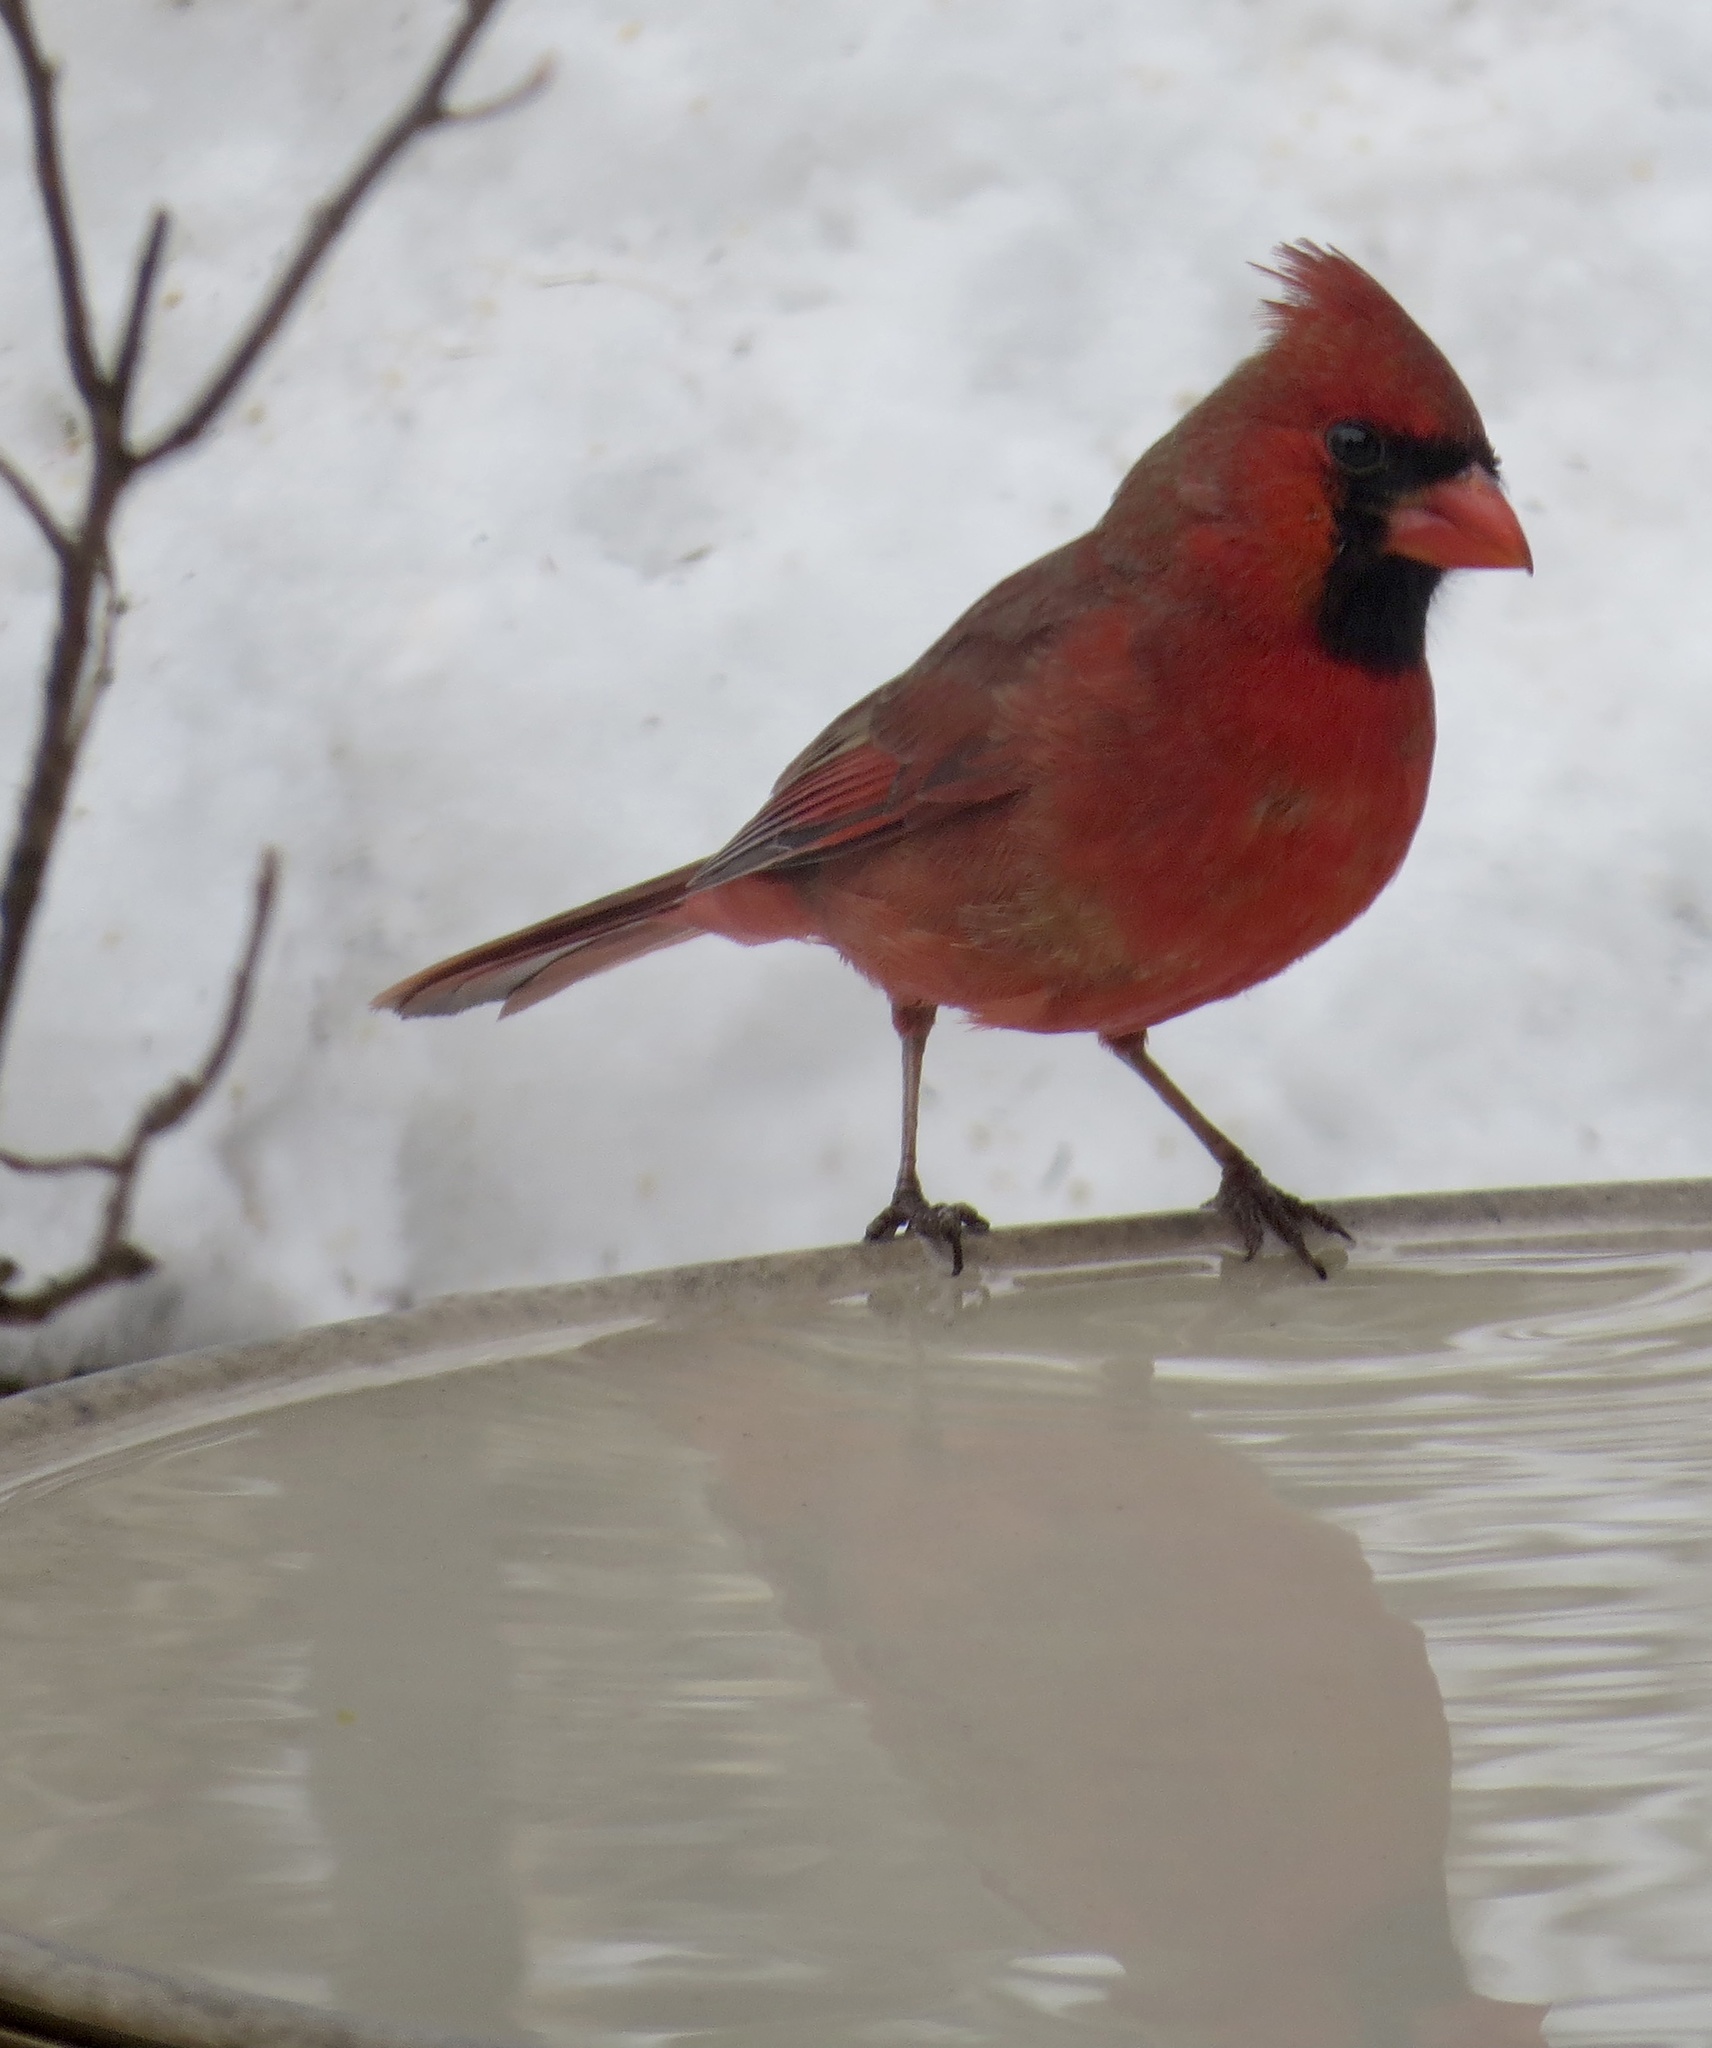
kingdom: Animalia
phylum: Chordata
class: Aves
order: Passeriformes
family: Cardinalidae
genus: Cardinalis
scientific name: Cardinalis cardinalis
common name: Northern cardinal
